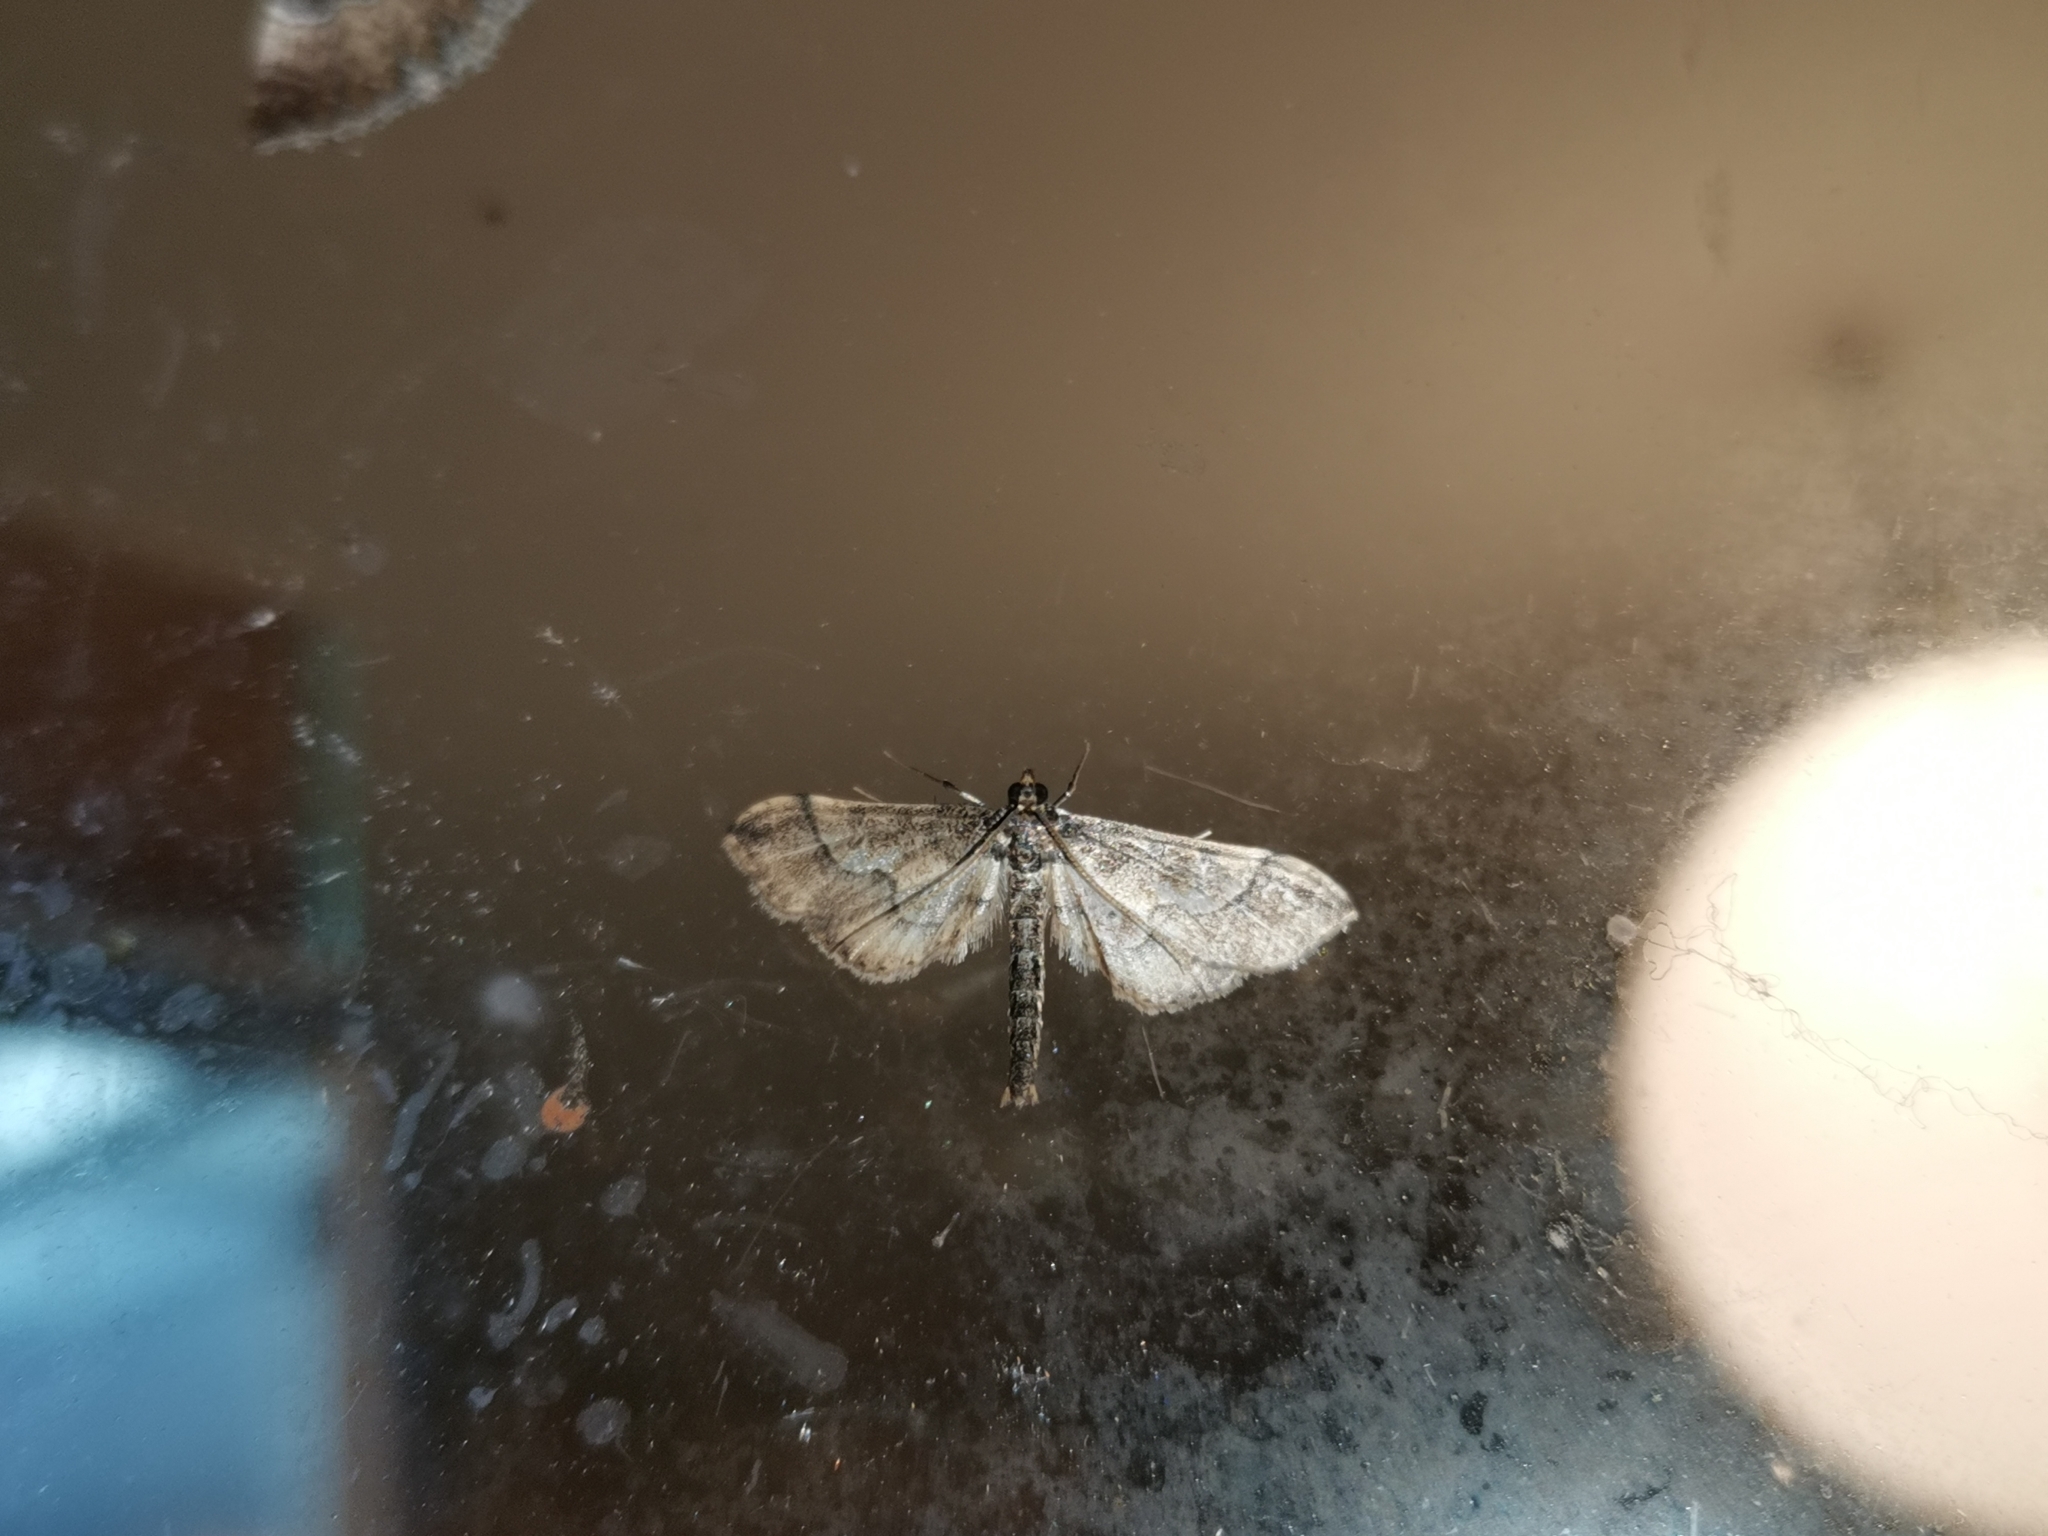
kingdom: Animalia
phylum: Arthropoda
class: Insecta
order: Lepidoptera
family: Crambidae
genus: Hydriris
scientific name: Hydriris ornatalis
